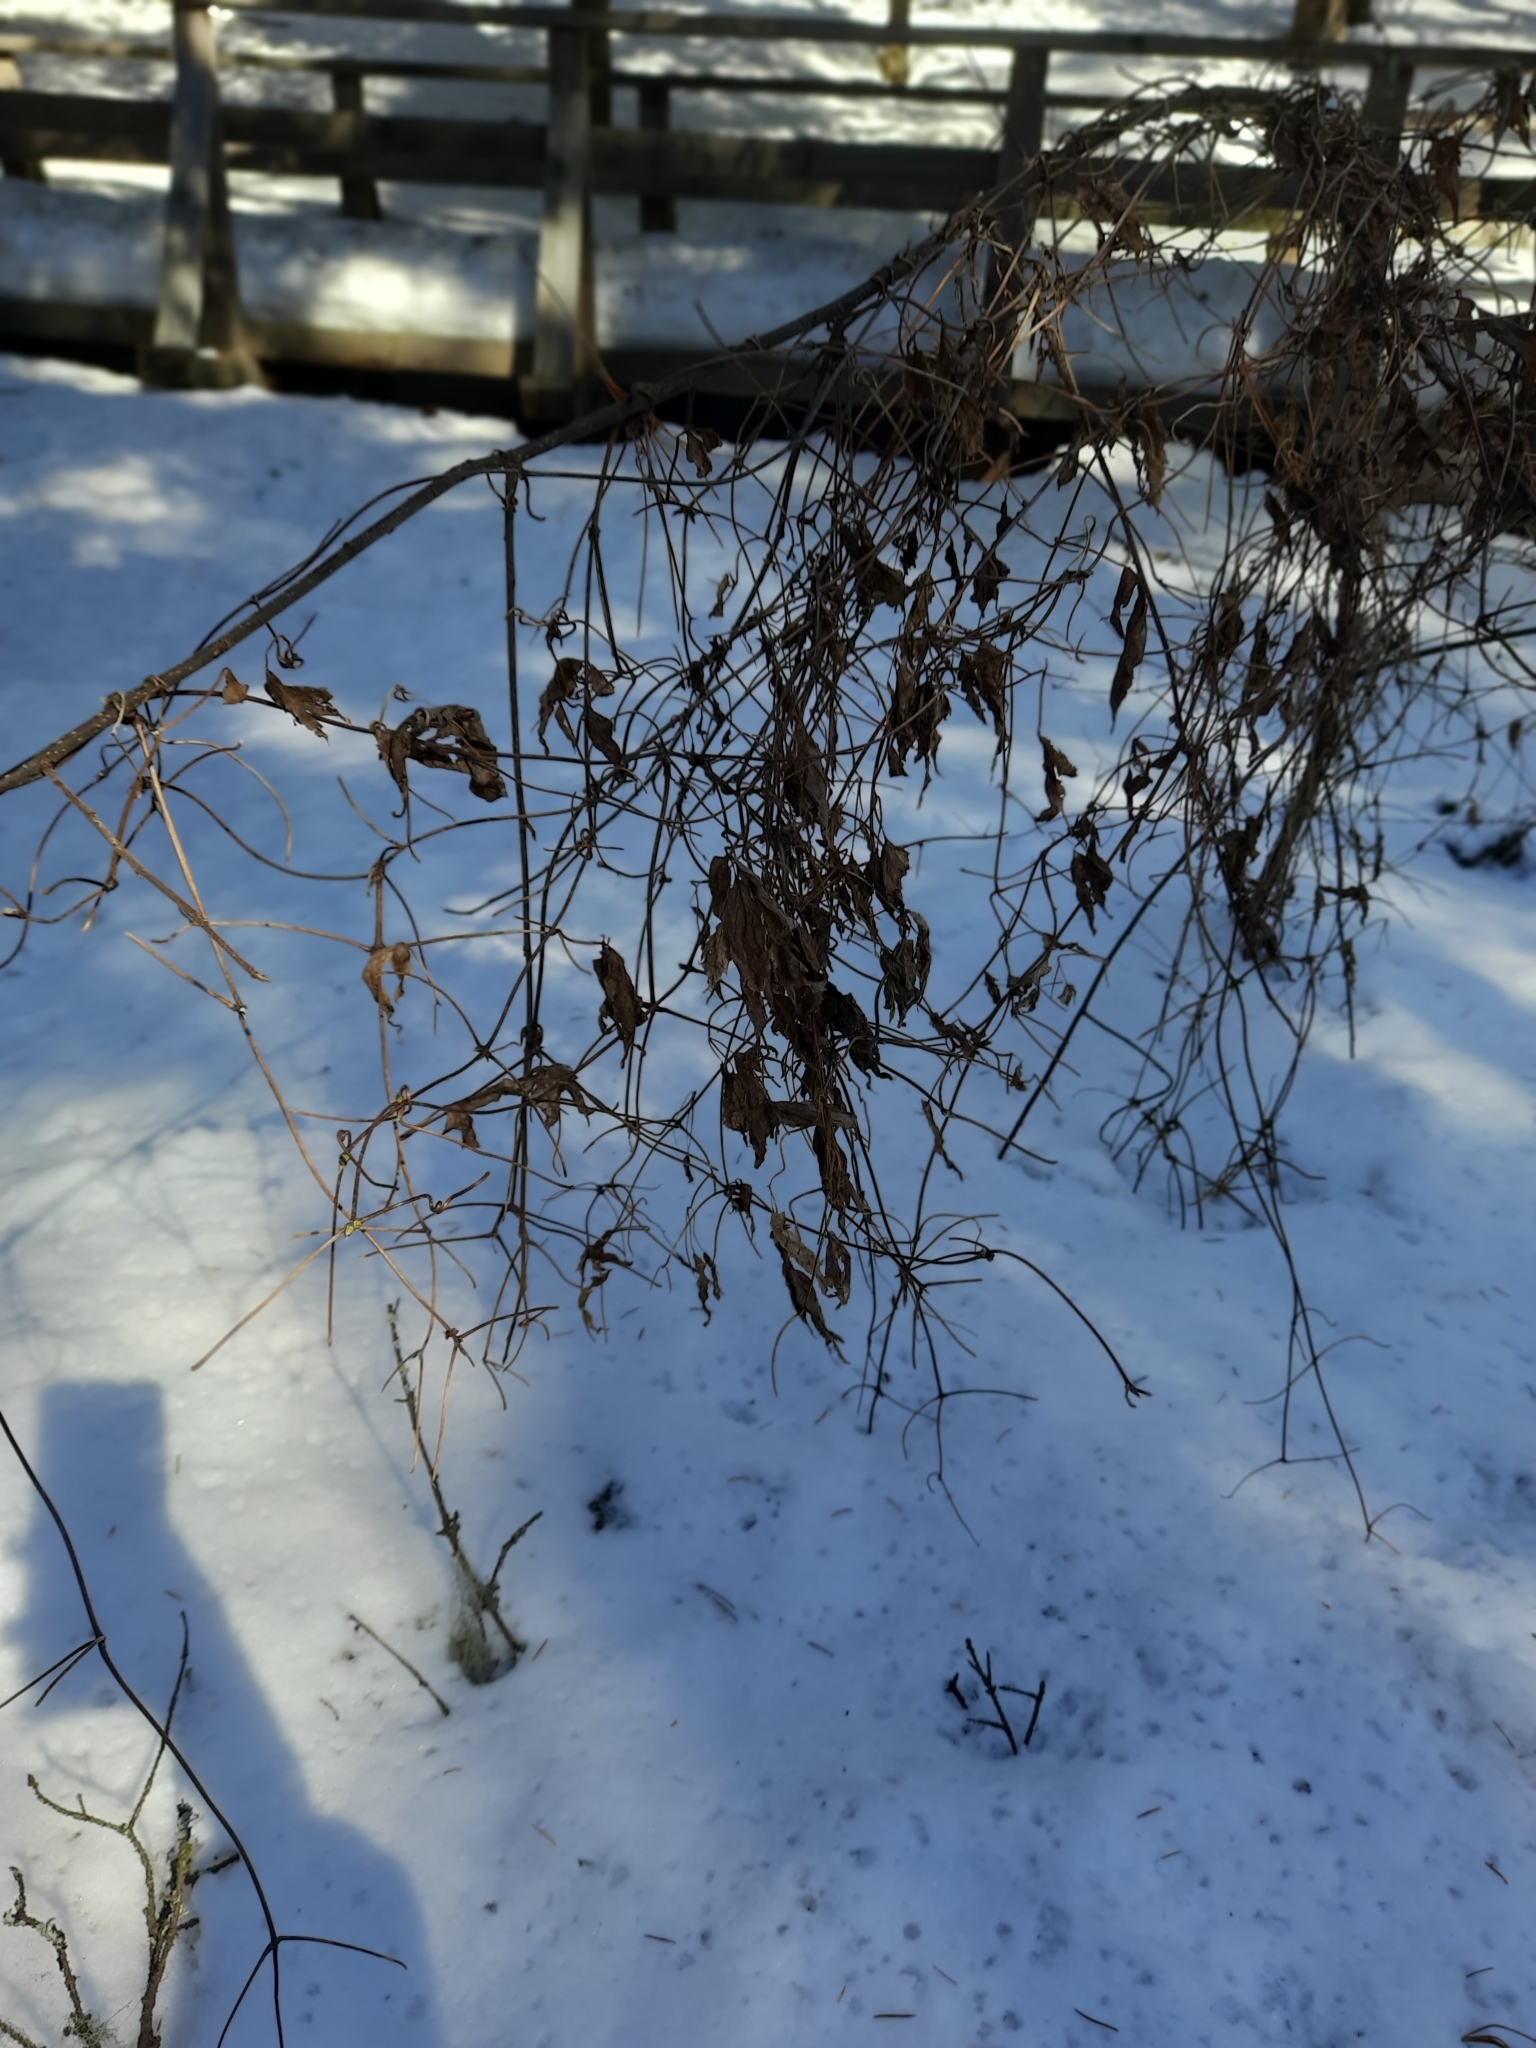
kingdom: Plantae
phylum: Tracheophyta
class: Magnoliopsida
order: Ranunculales
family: Ranunculaceae
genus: Clematis
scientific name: Clematis sibirica
